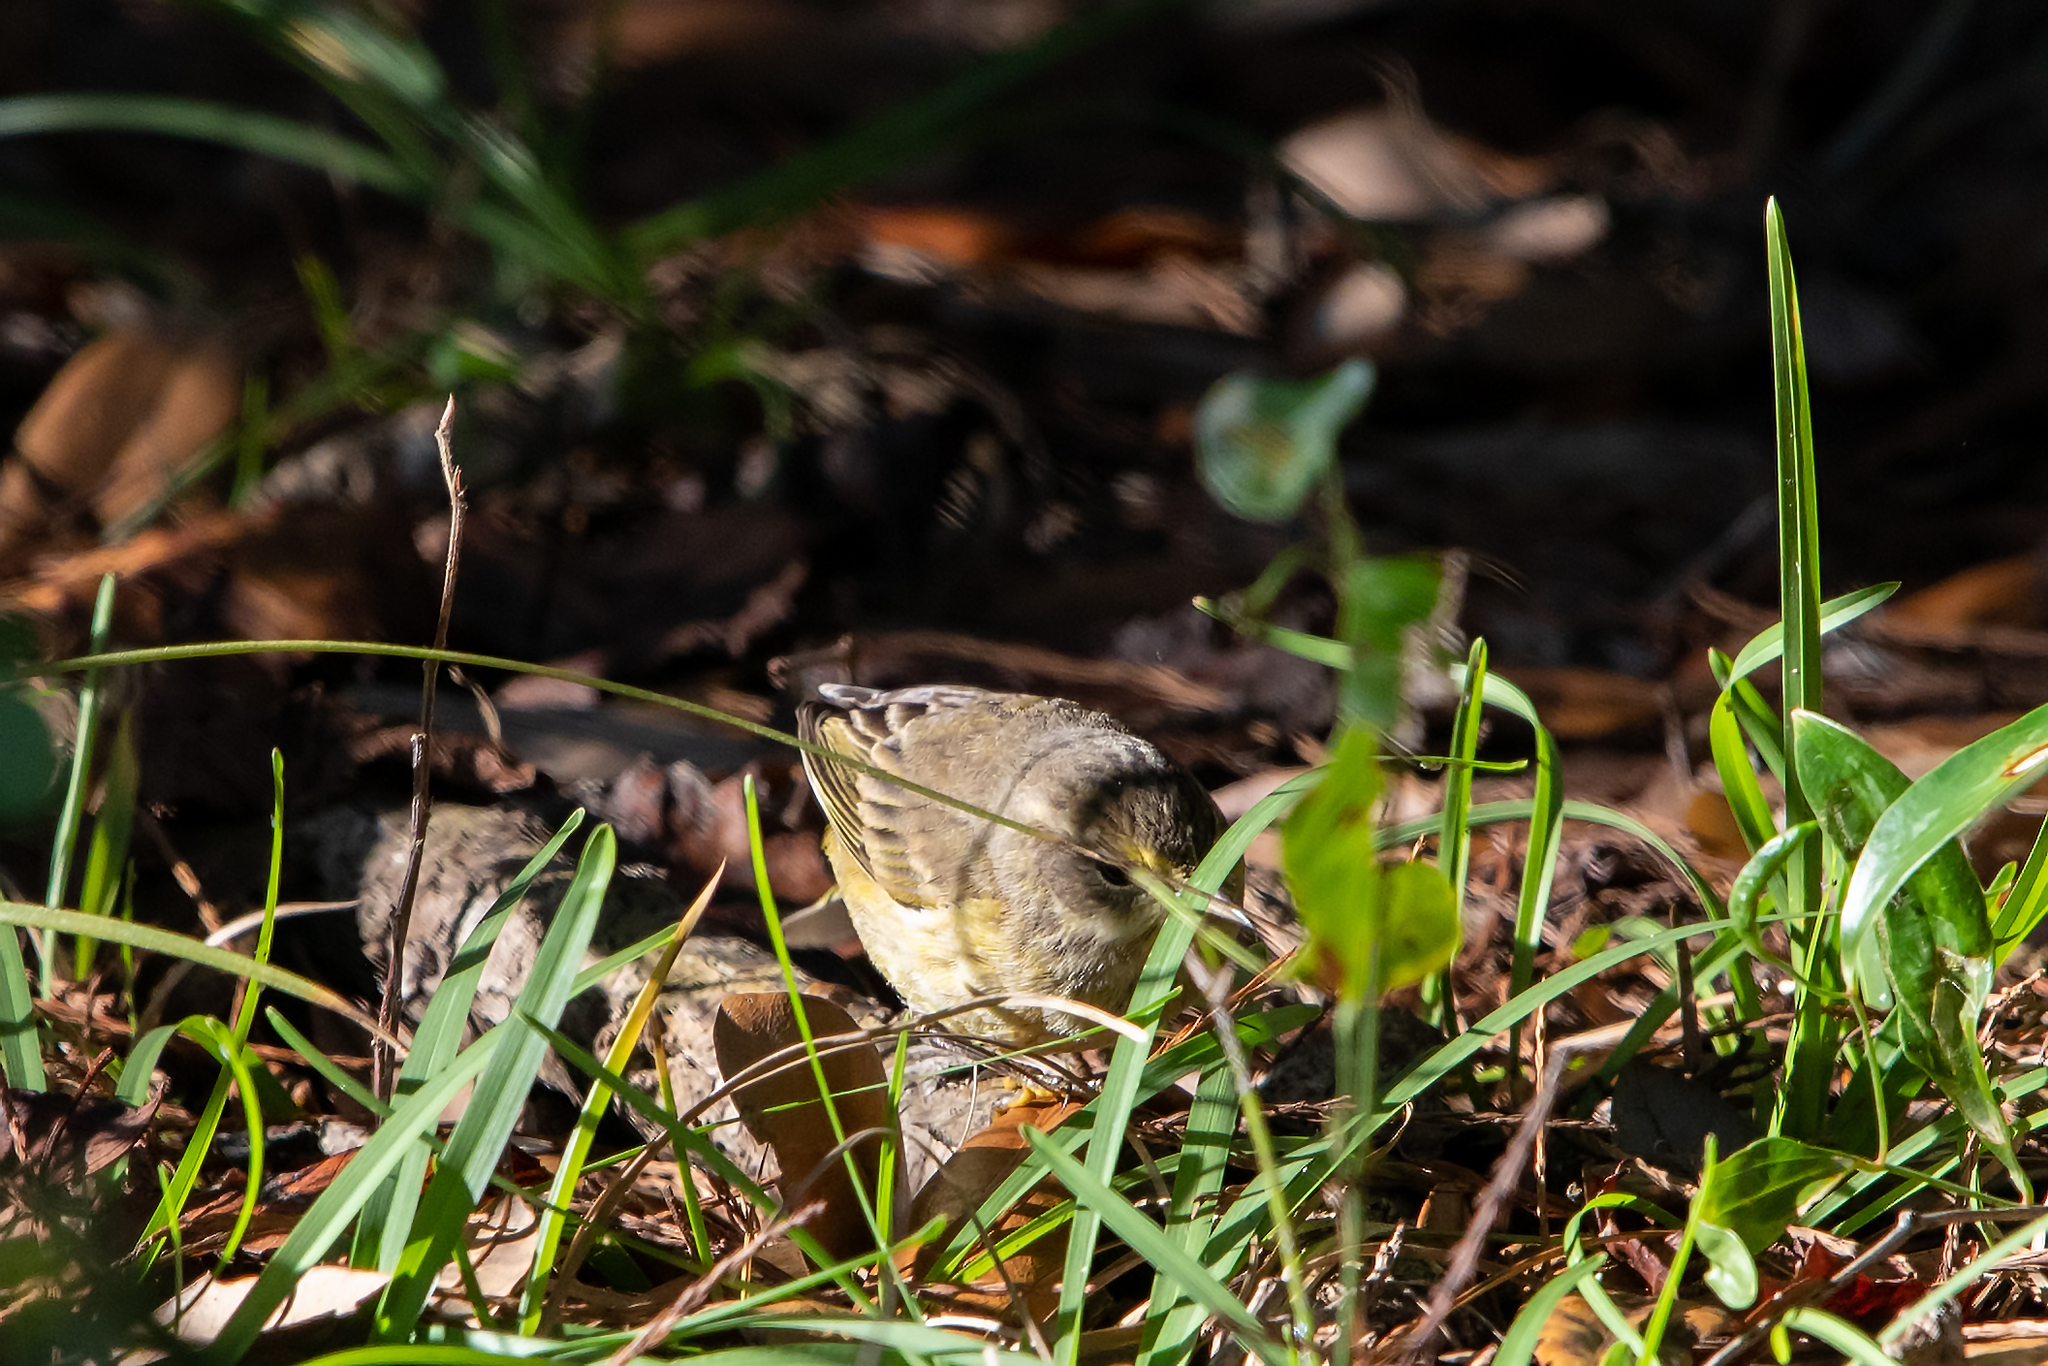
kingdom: Animalia
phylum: Chordata
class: Aves
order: Passeriformes
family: Parulidae
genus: Setophaga
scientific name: Setophaga palmarum
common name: Palm warbler
